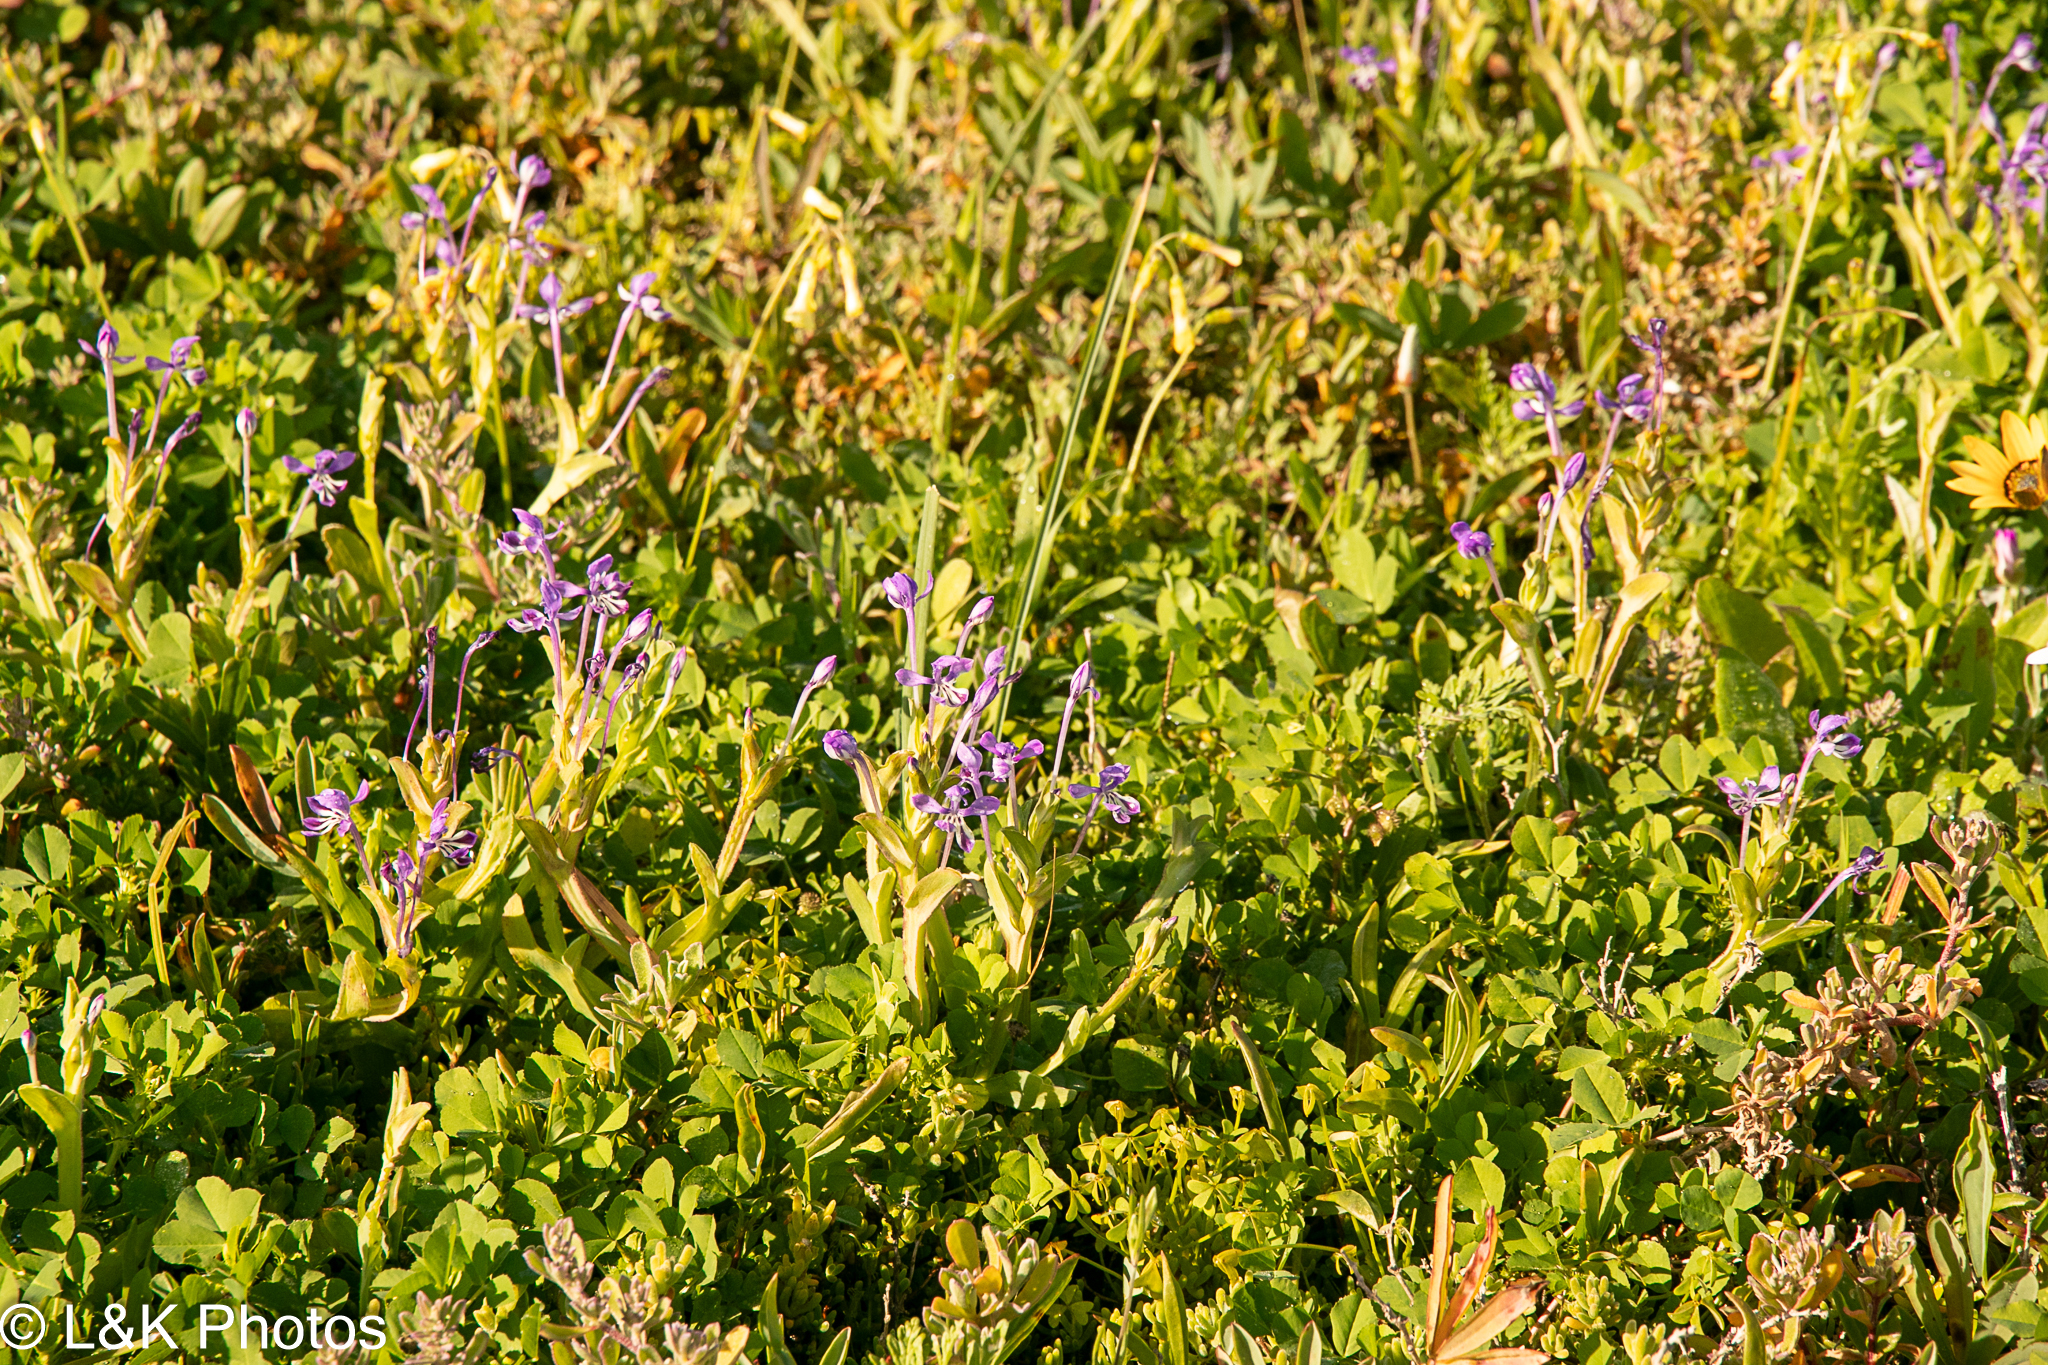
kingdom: Plantae
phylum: Tracheophyta
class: Liliopsida
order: Asparagales
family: Iridaceae
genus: Lapeirousia
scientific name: Lapeirousia jacquinii
